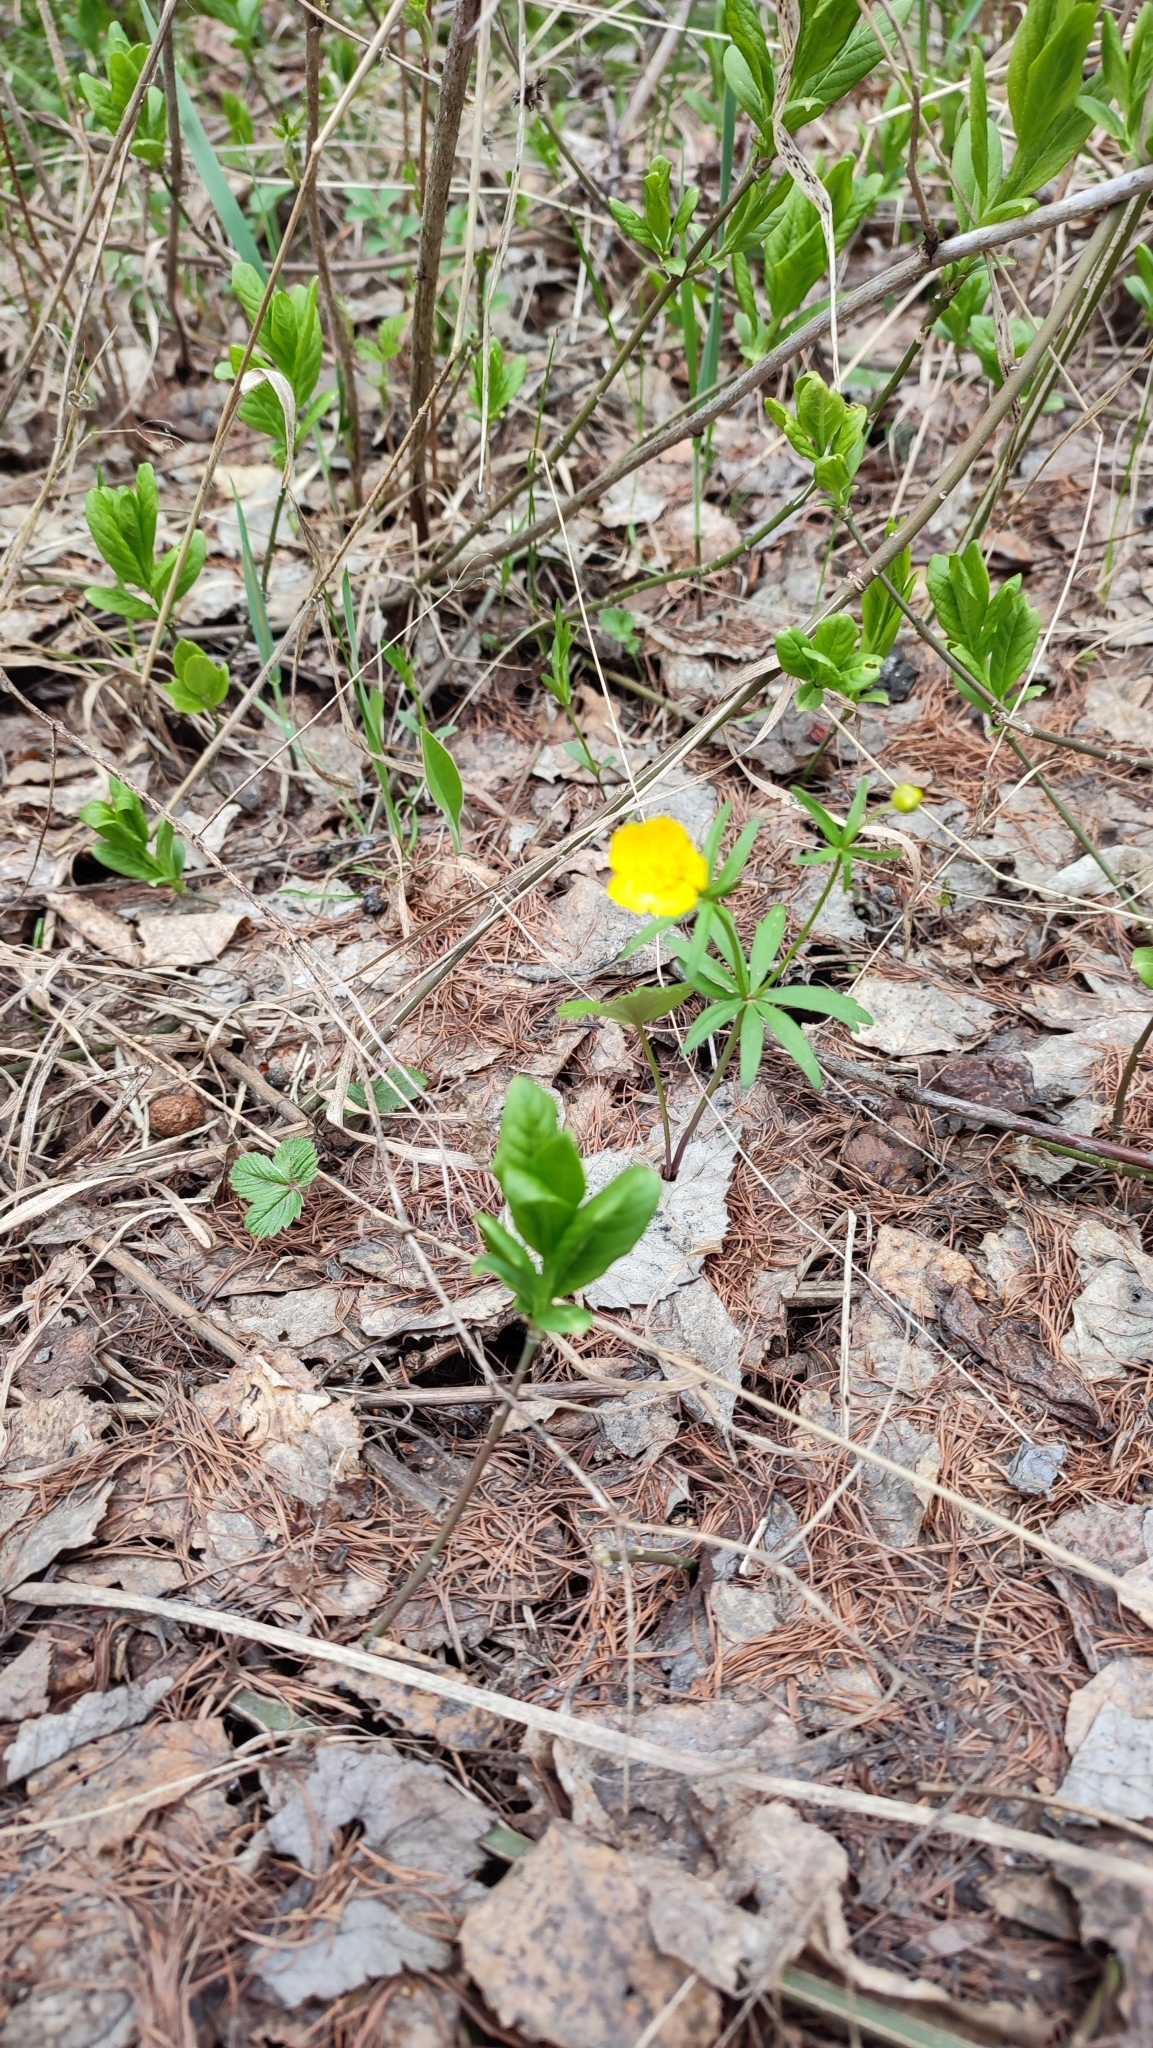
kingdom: Plantae
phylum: Tracheophyta
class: Magnoliopsida
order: Ranunculales
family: Ranunculaceae
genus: Ranunculus
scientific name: Ranunculus monophyllus
